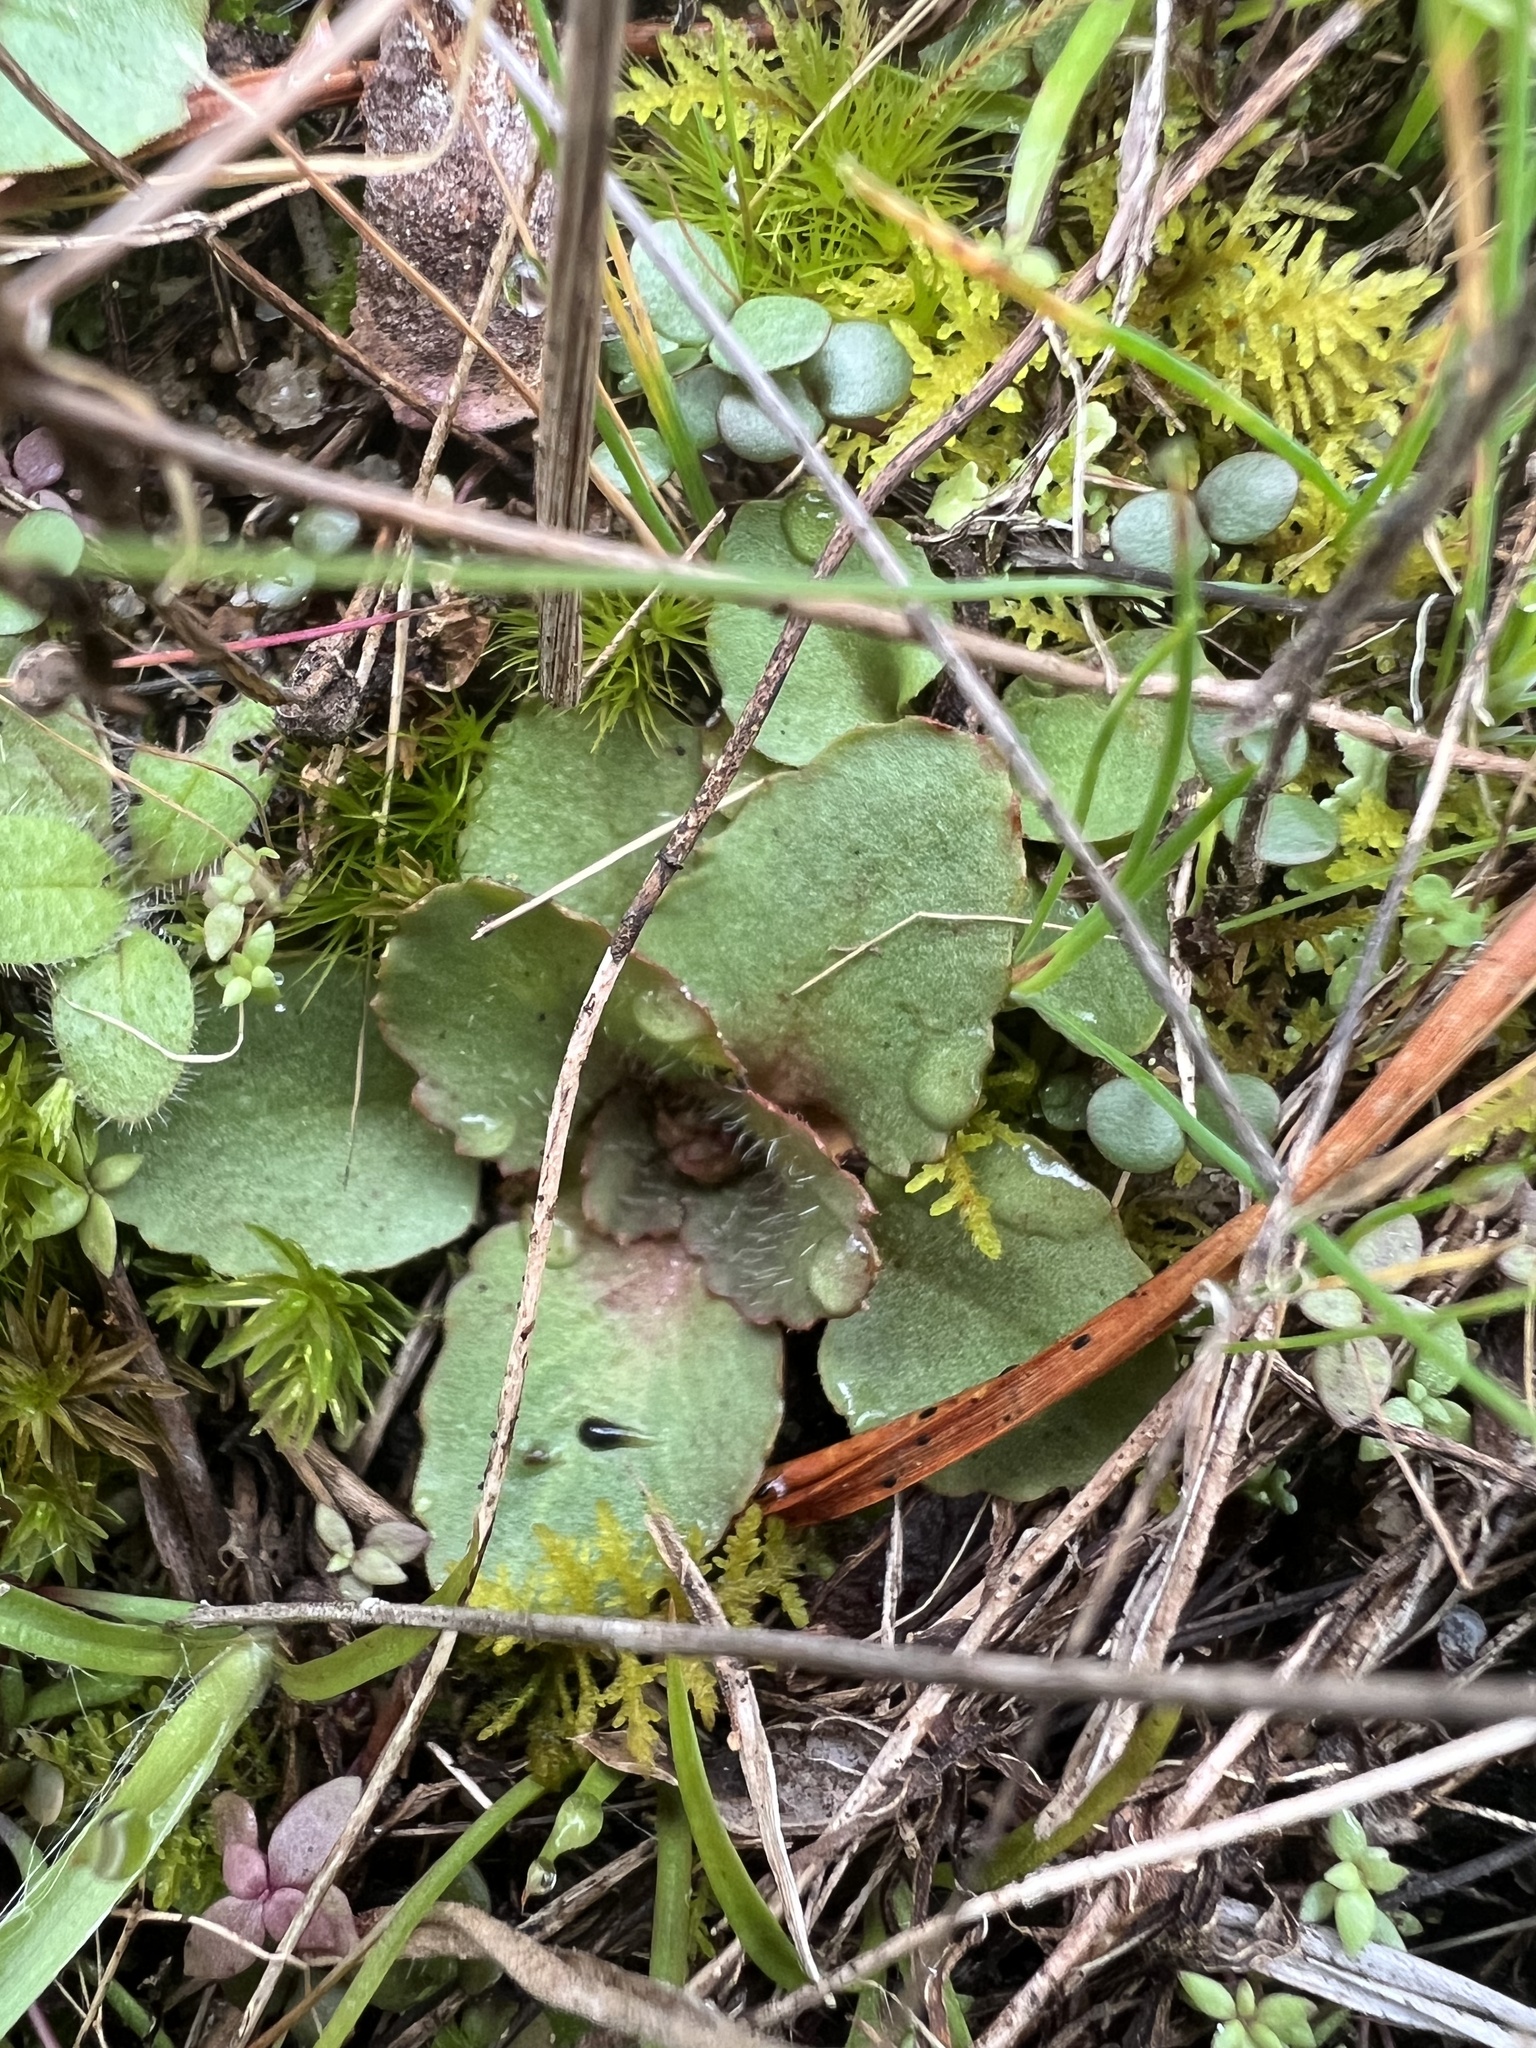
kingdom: Plantae
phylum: Tracheophyta
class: Magnoliopsida
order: Saxifragales
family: Saxifragaceae
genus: Micranthes
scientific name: Micranthes virginiensis
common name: Early saxifrage
